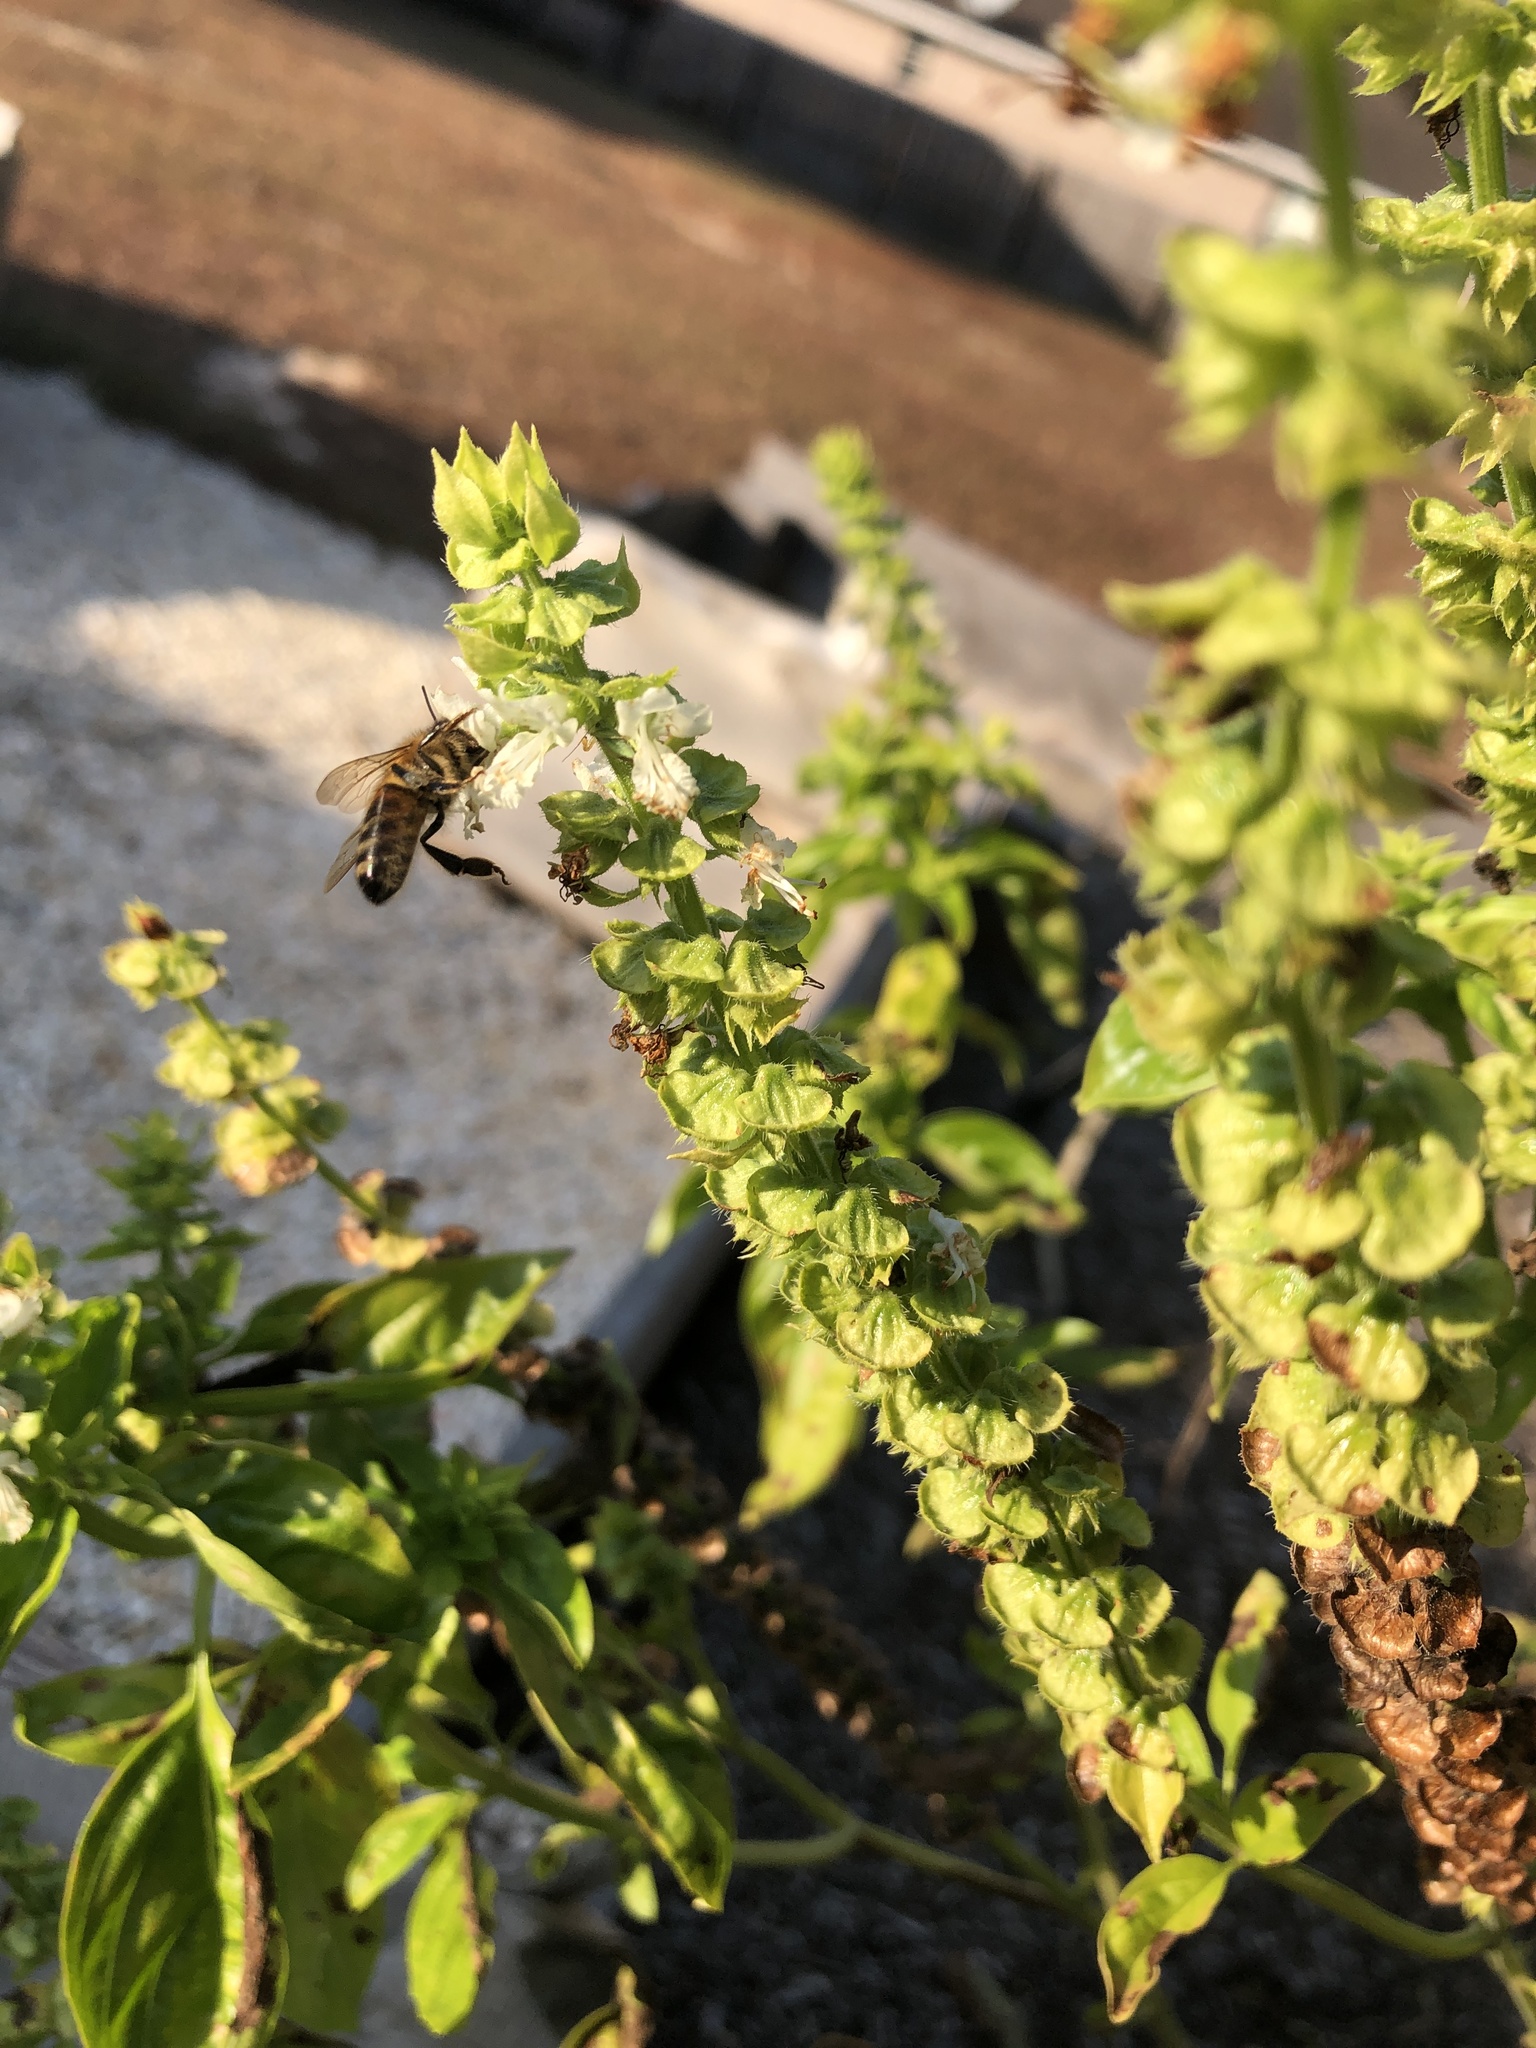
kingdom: Animalia
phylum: Arthropoda
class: Insecta
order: Hymenoptera
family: Apidae
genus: Apis
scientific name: Apis mellifera
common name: Honey bee
